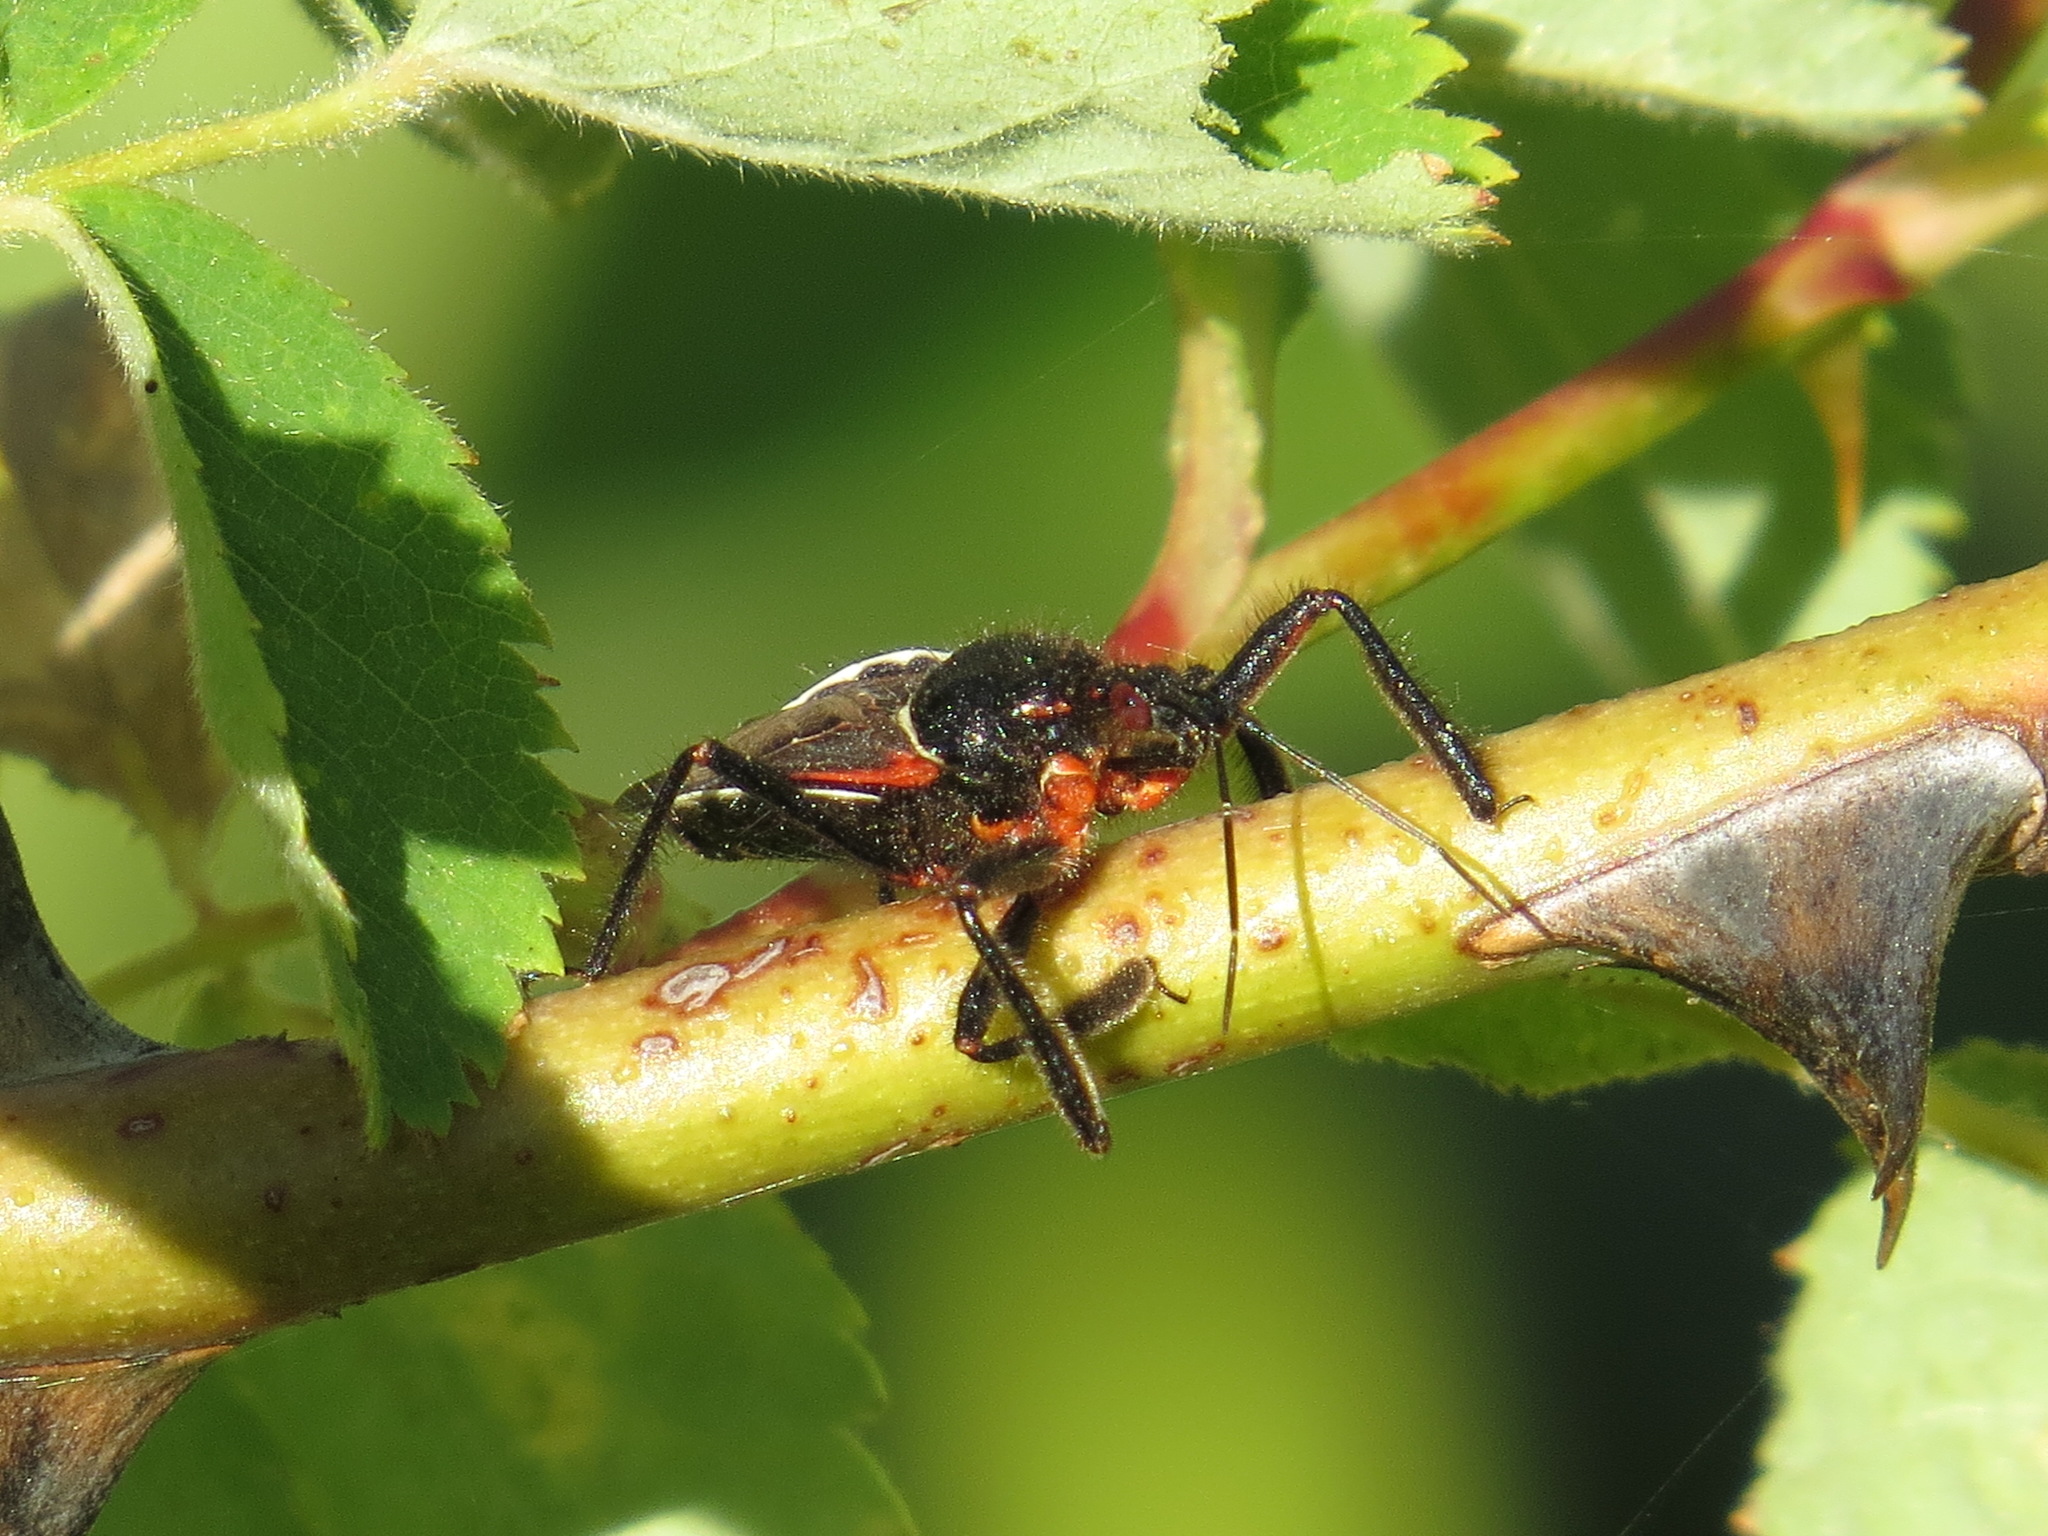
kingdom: Animalia
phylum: Arthropoda
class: Insecta
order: Hemiptera
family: Reduviidae
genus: Apiomerus
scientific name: Apiomerus californicus
